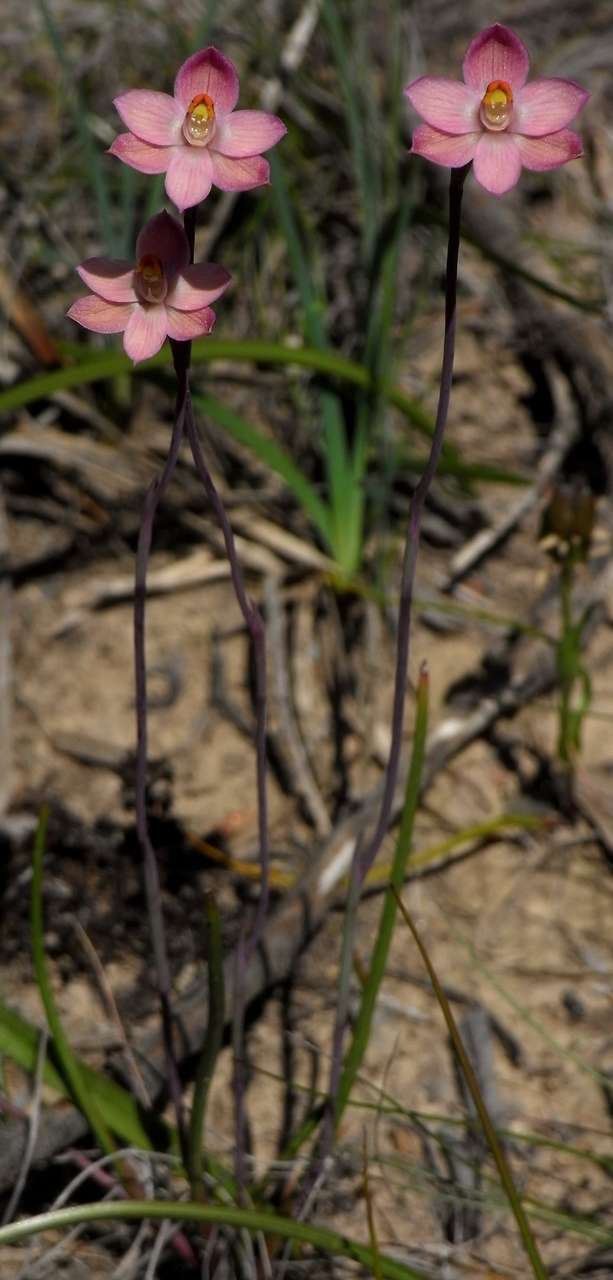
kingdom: Plantae
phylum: Tracheophyta
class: Liliopsida
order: Asparagales
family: Orchidaceae
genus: Thelymitra
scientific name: Thelymitra rubra
